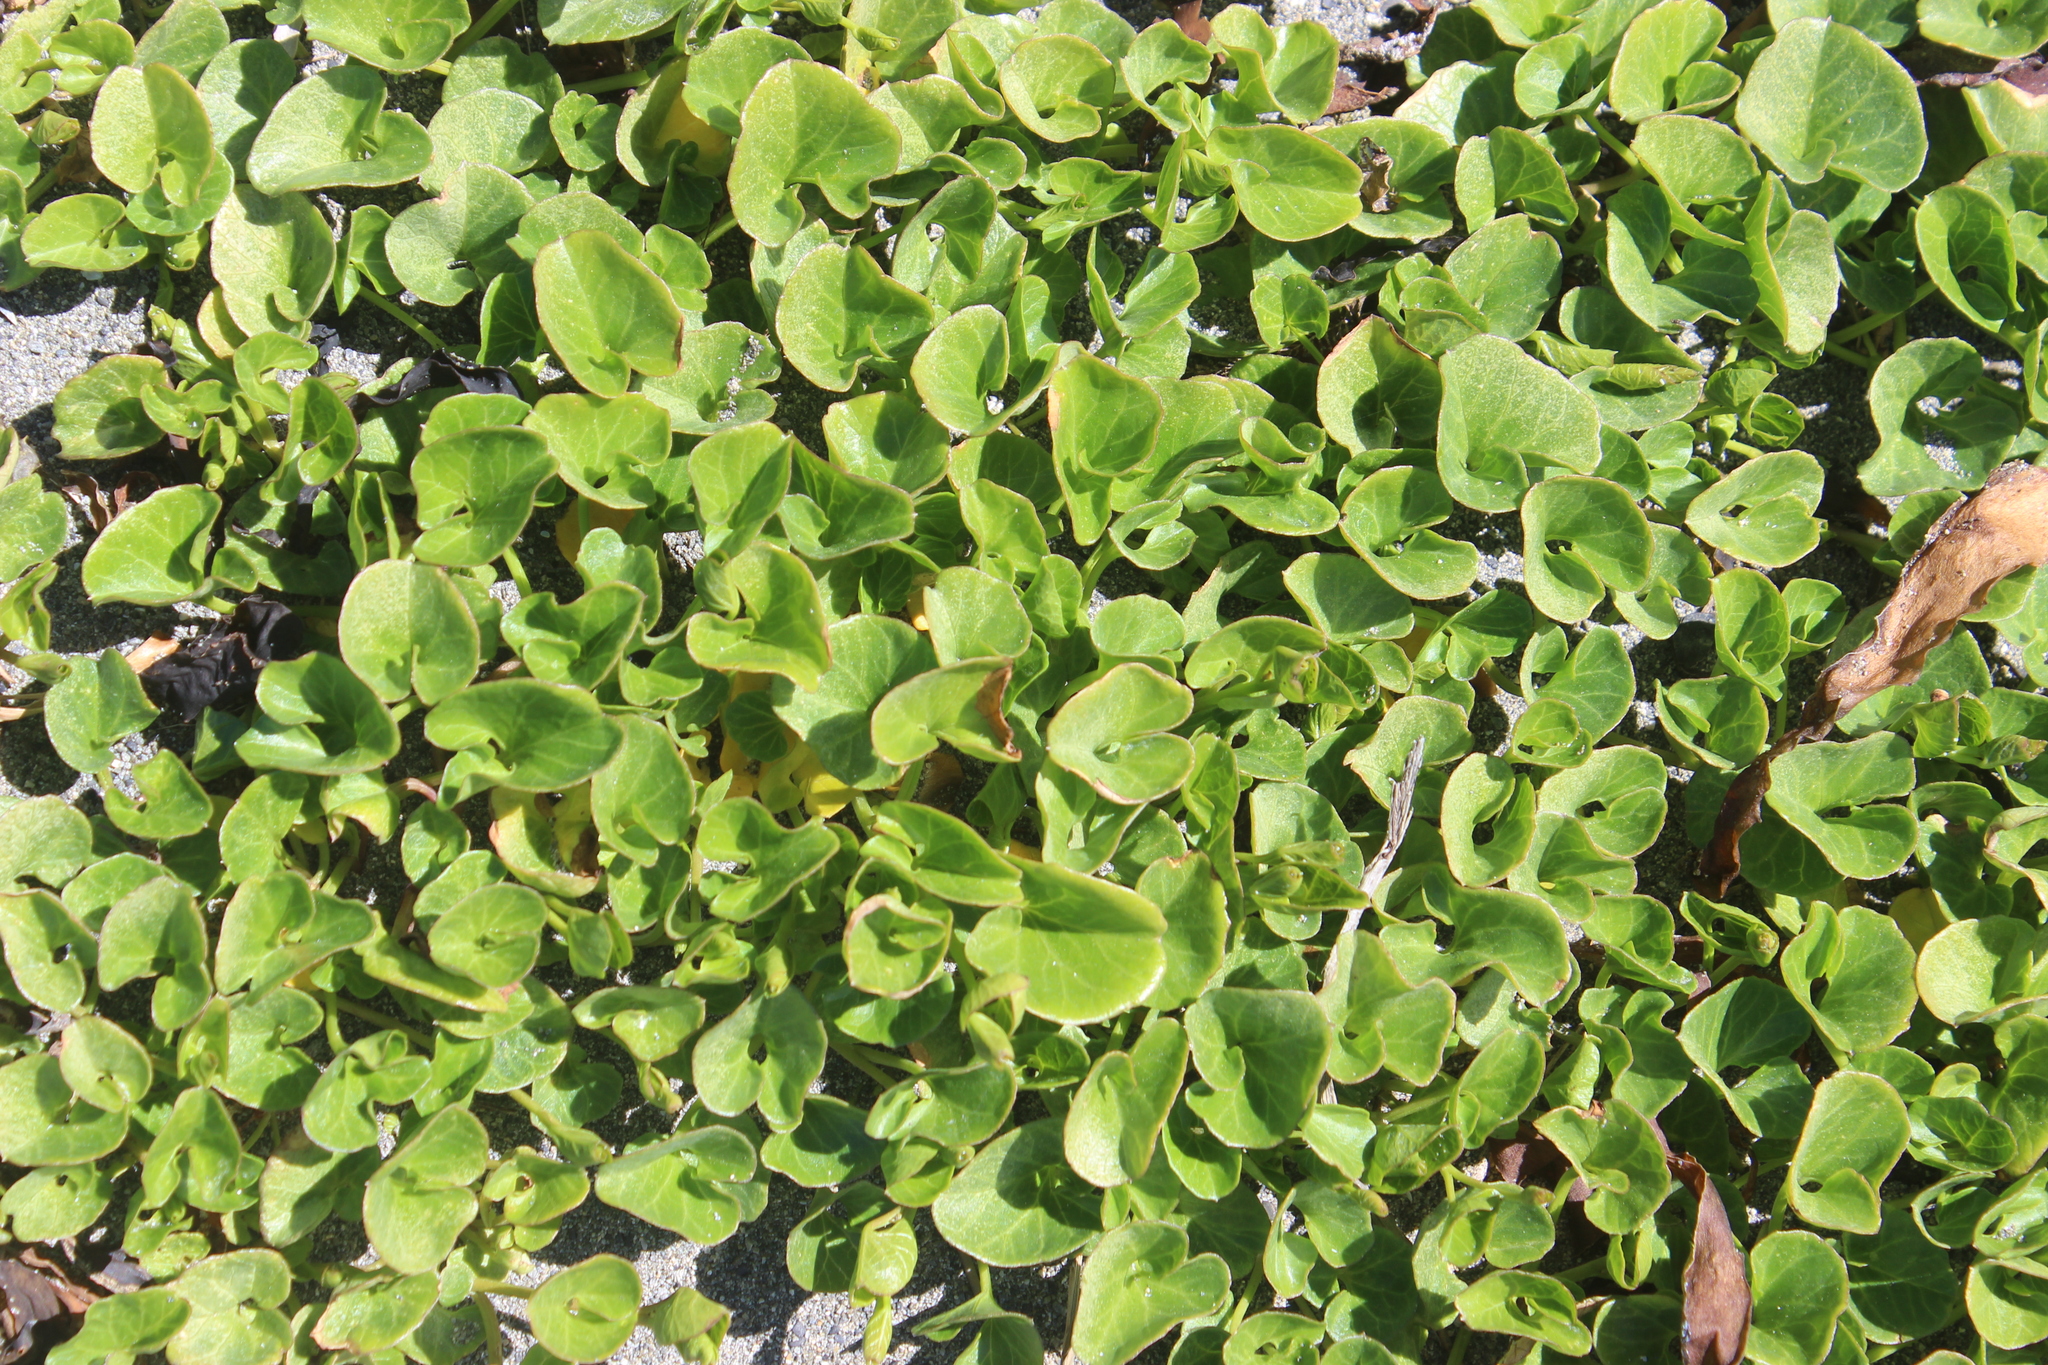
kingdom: Plantae
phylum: Tracheophyta
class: Magnoliopsida
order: Solanales
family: Convolvulaceae
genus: Calystegia
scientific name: Calystegia soldanella
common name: Sea bindweed
